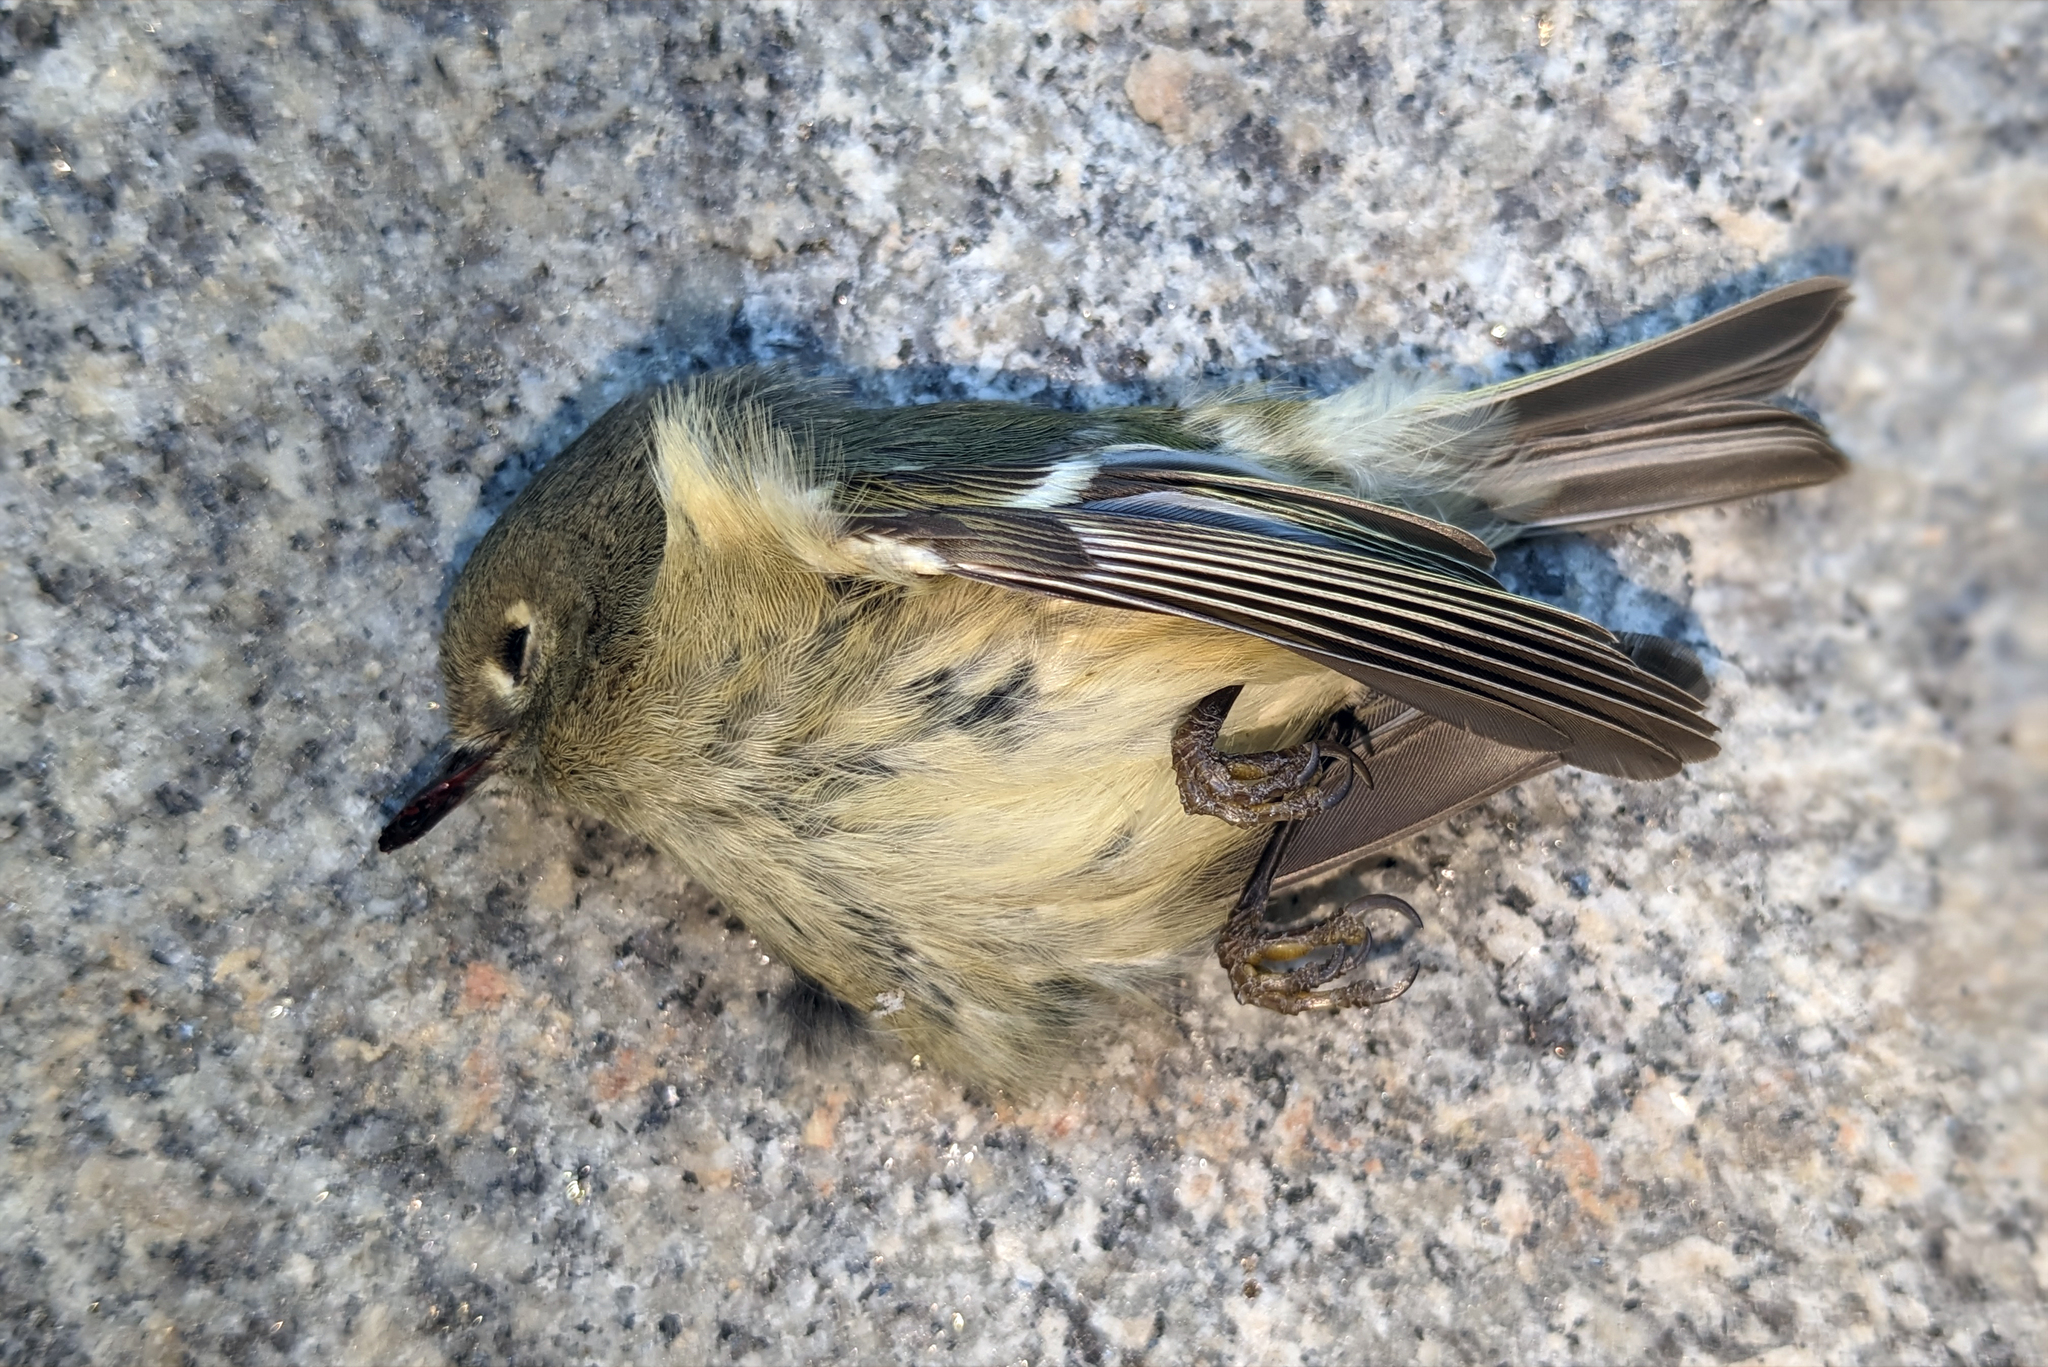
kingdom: Animalia
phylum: Chordata
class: Aves
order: Passeriformes
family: Regulidae
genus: Regulus
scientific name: Regulus calendula
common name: Ruby-crowned kinglet
